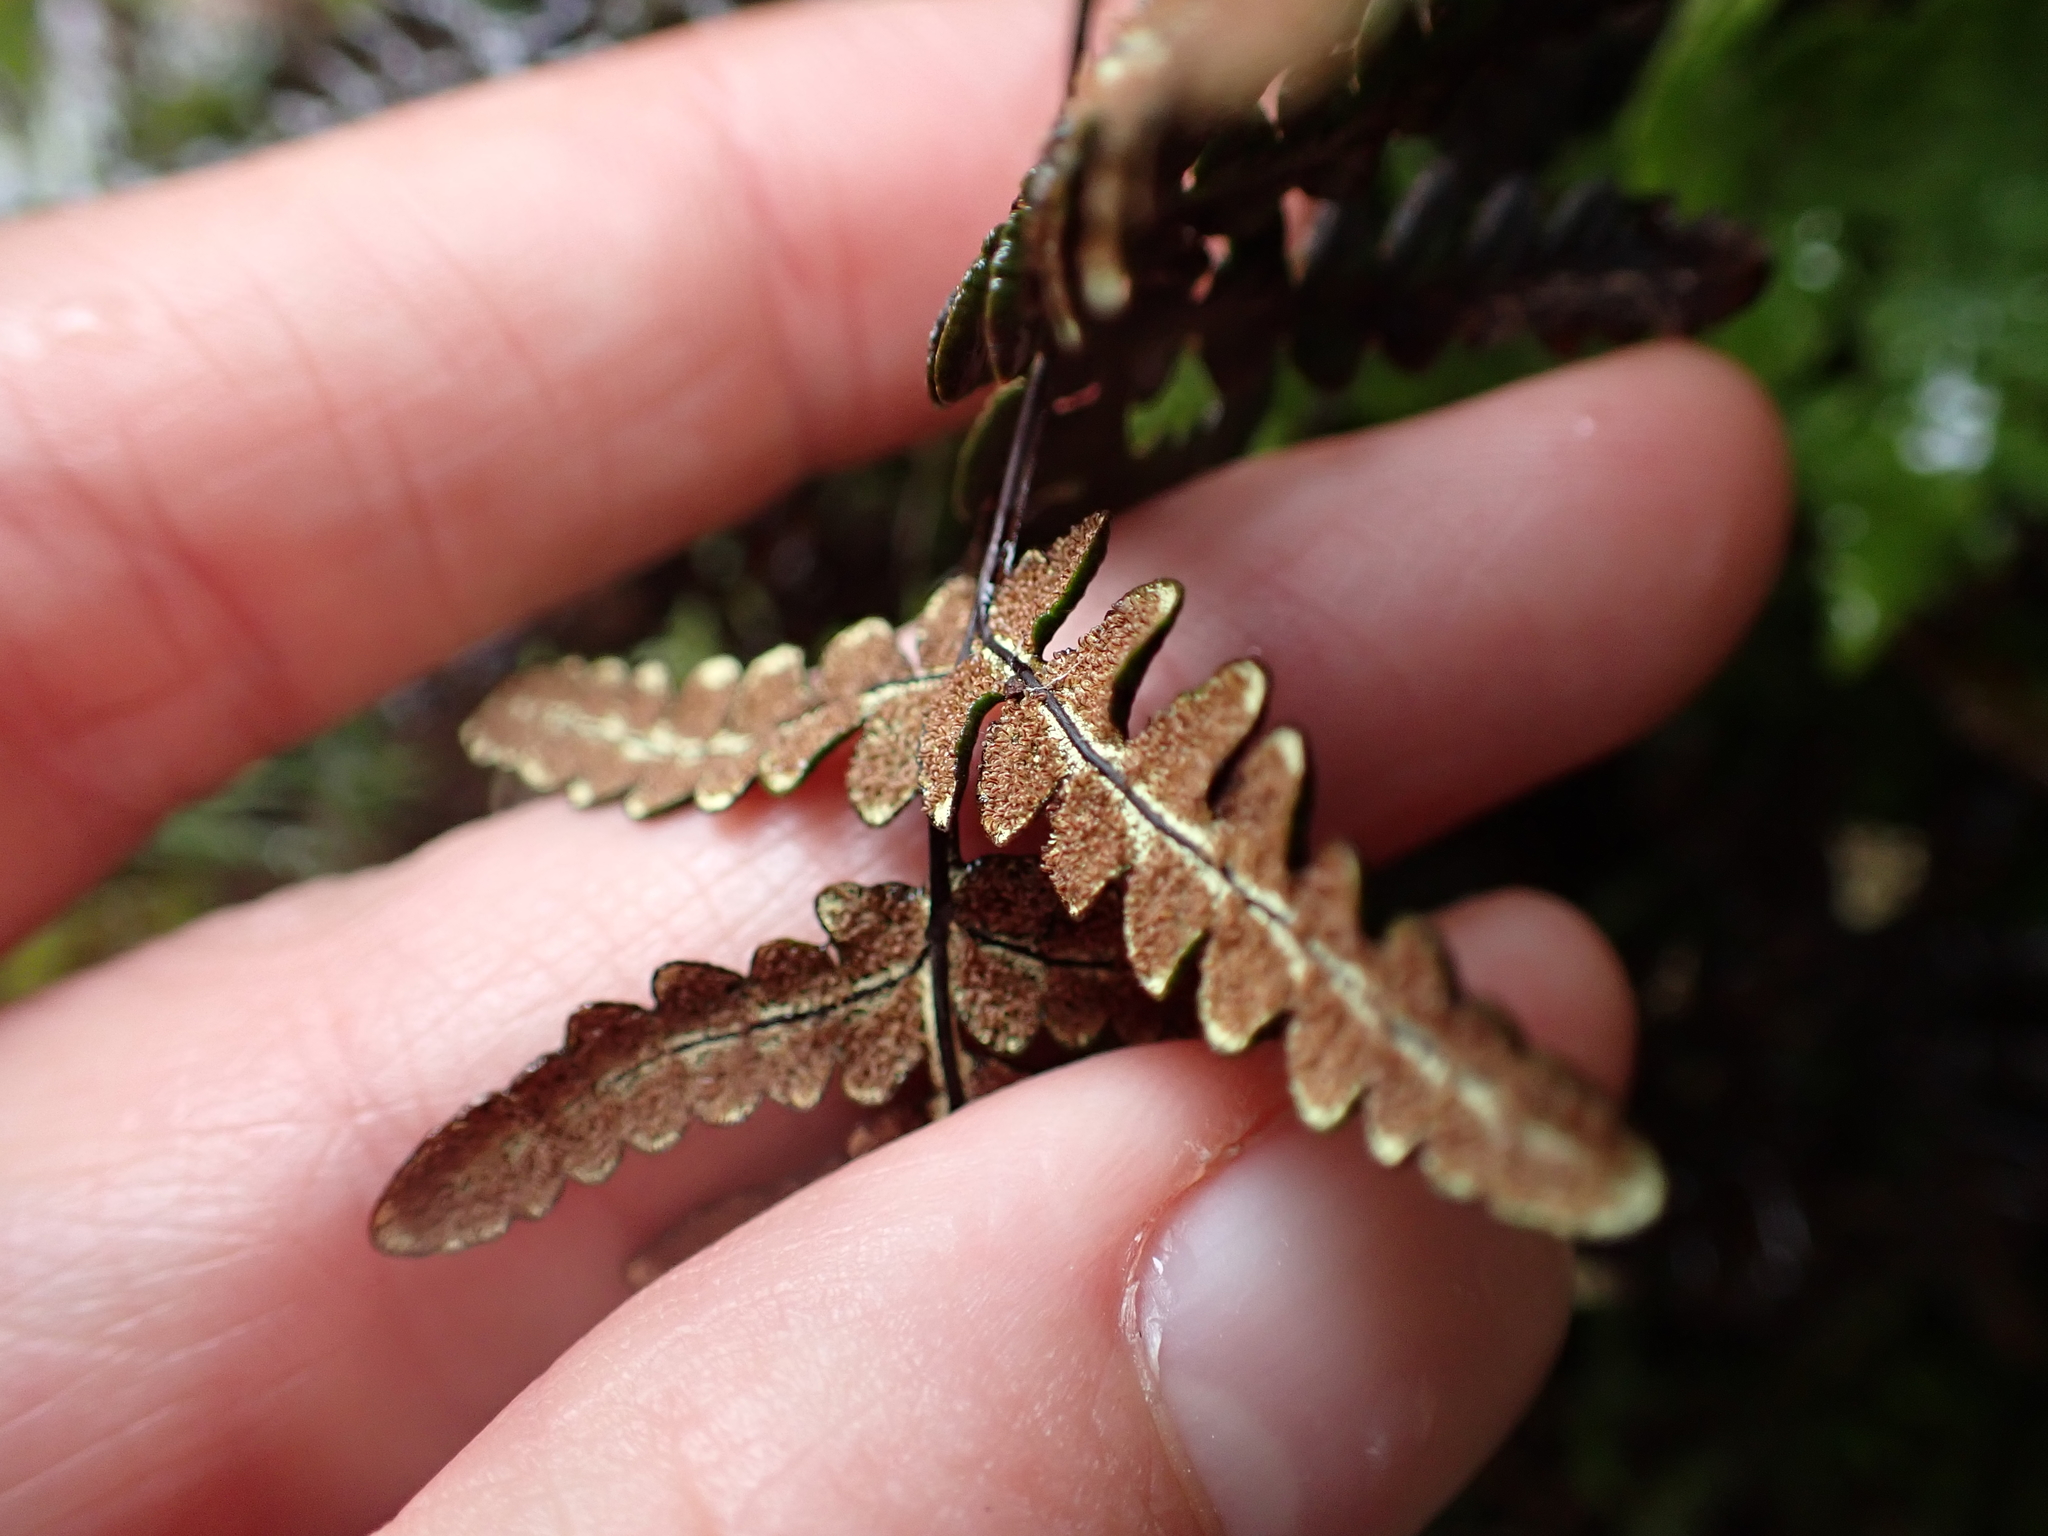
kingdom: Plantae
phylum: Tracheophyta
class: Polypodiopsida
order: Polypodiales
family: Pteridaceae
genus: Pentagramma
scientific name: Pentagramma triangularis
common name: Gold fern
